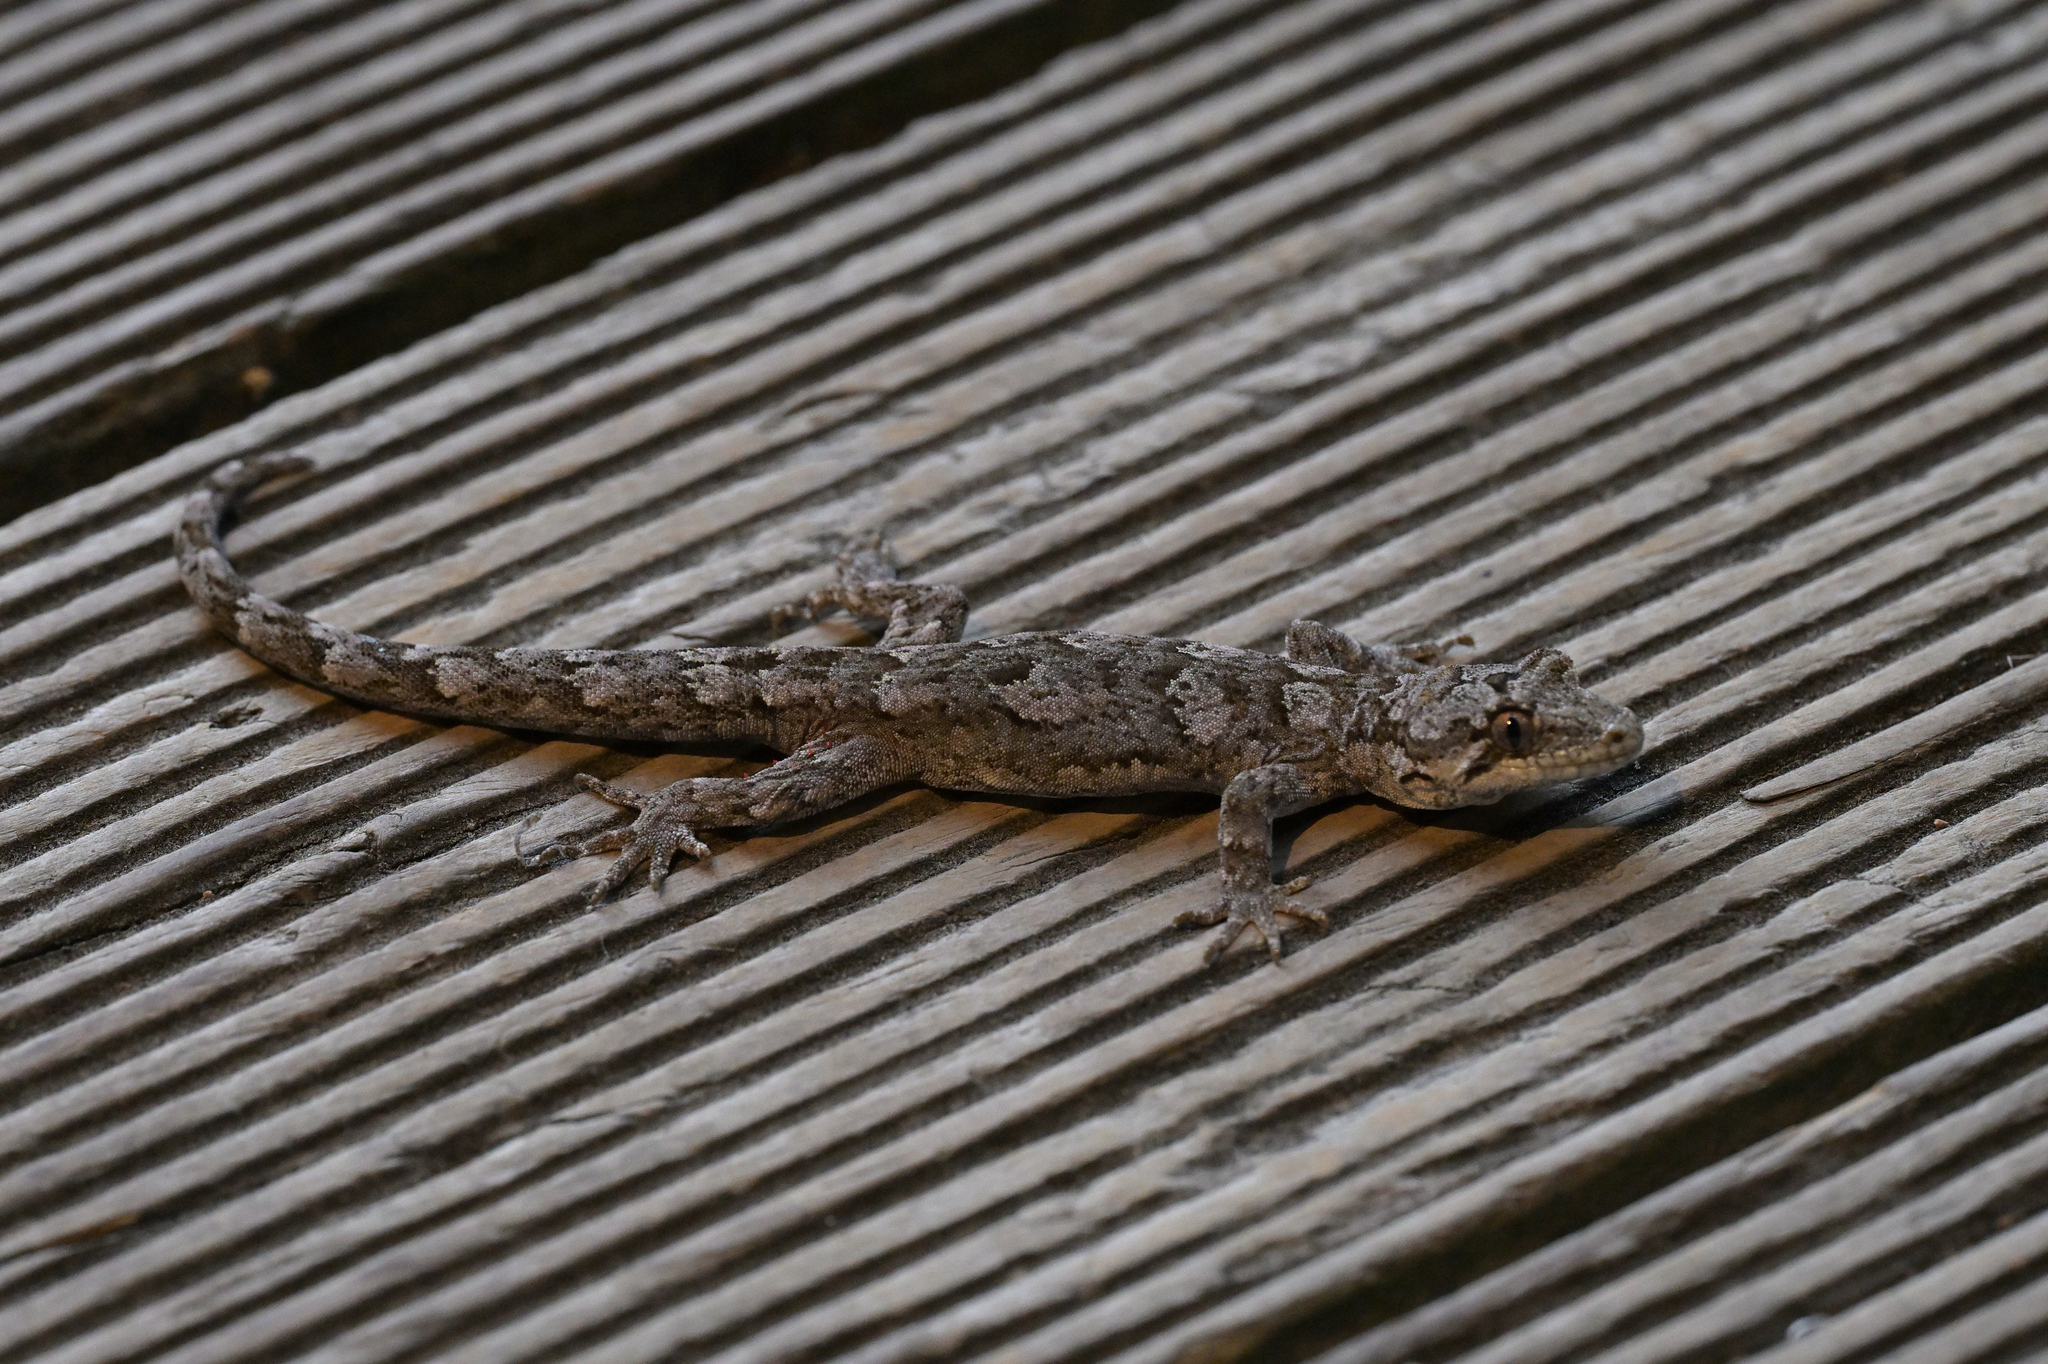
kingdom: Animalia
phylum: Chordata
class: Squamata
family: Diplodactylidae
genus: Mokopirirakau
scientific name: Mokopirirakau
